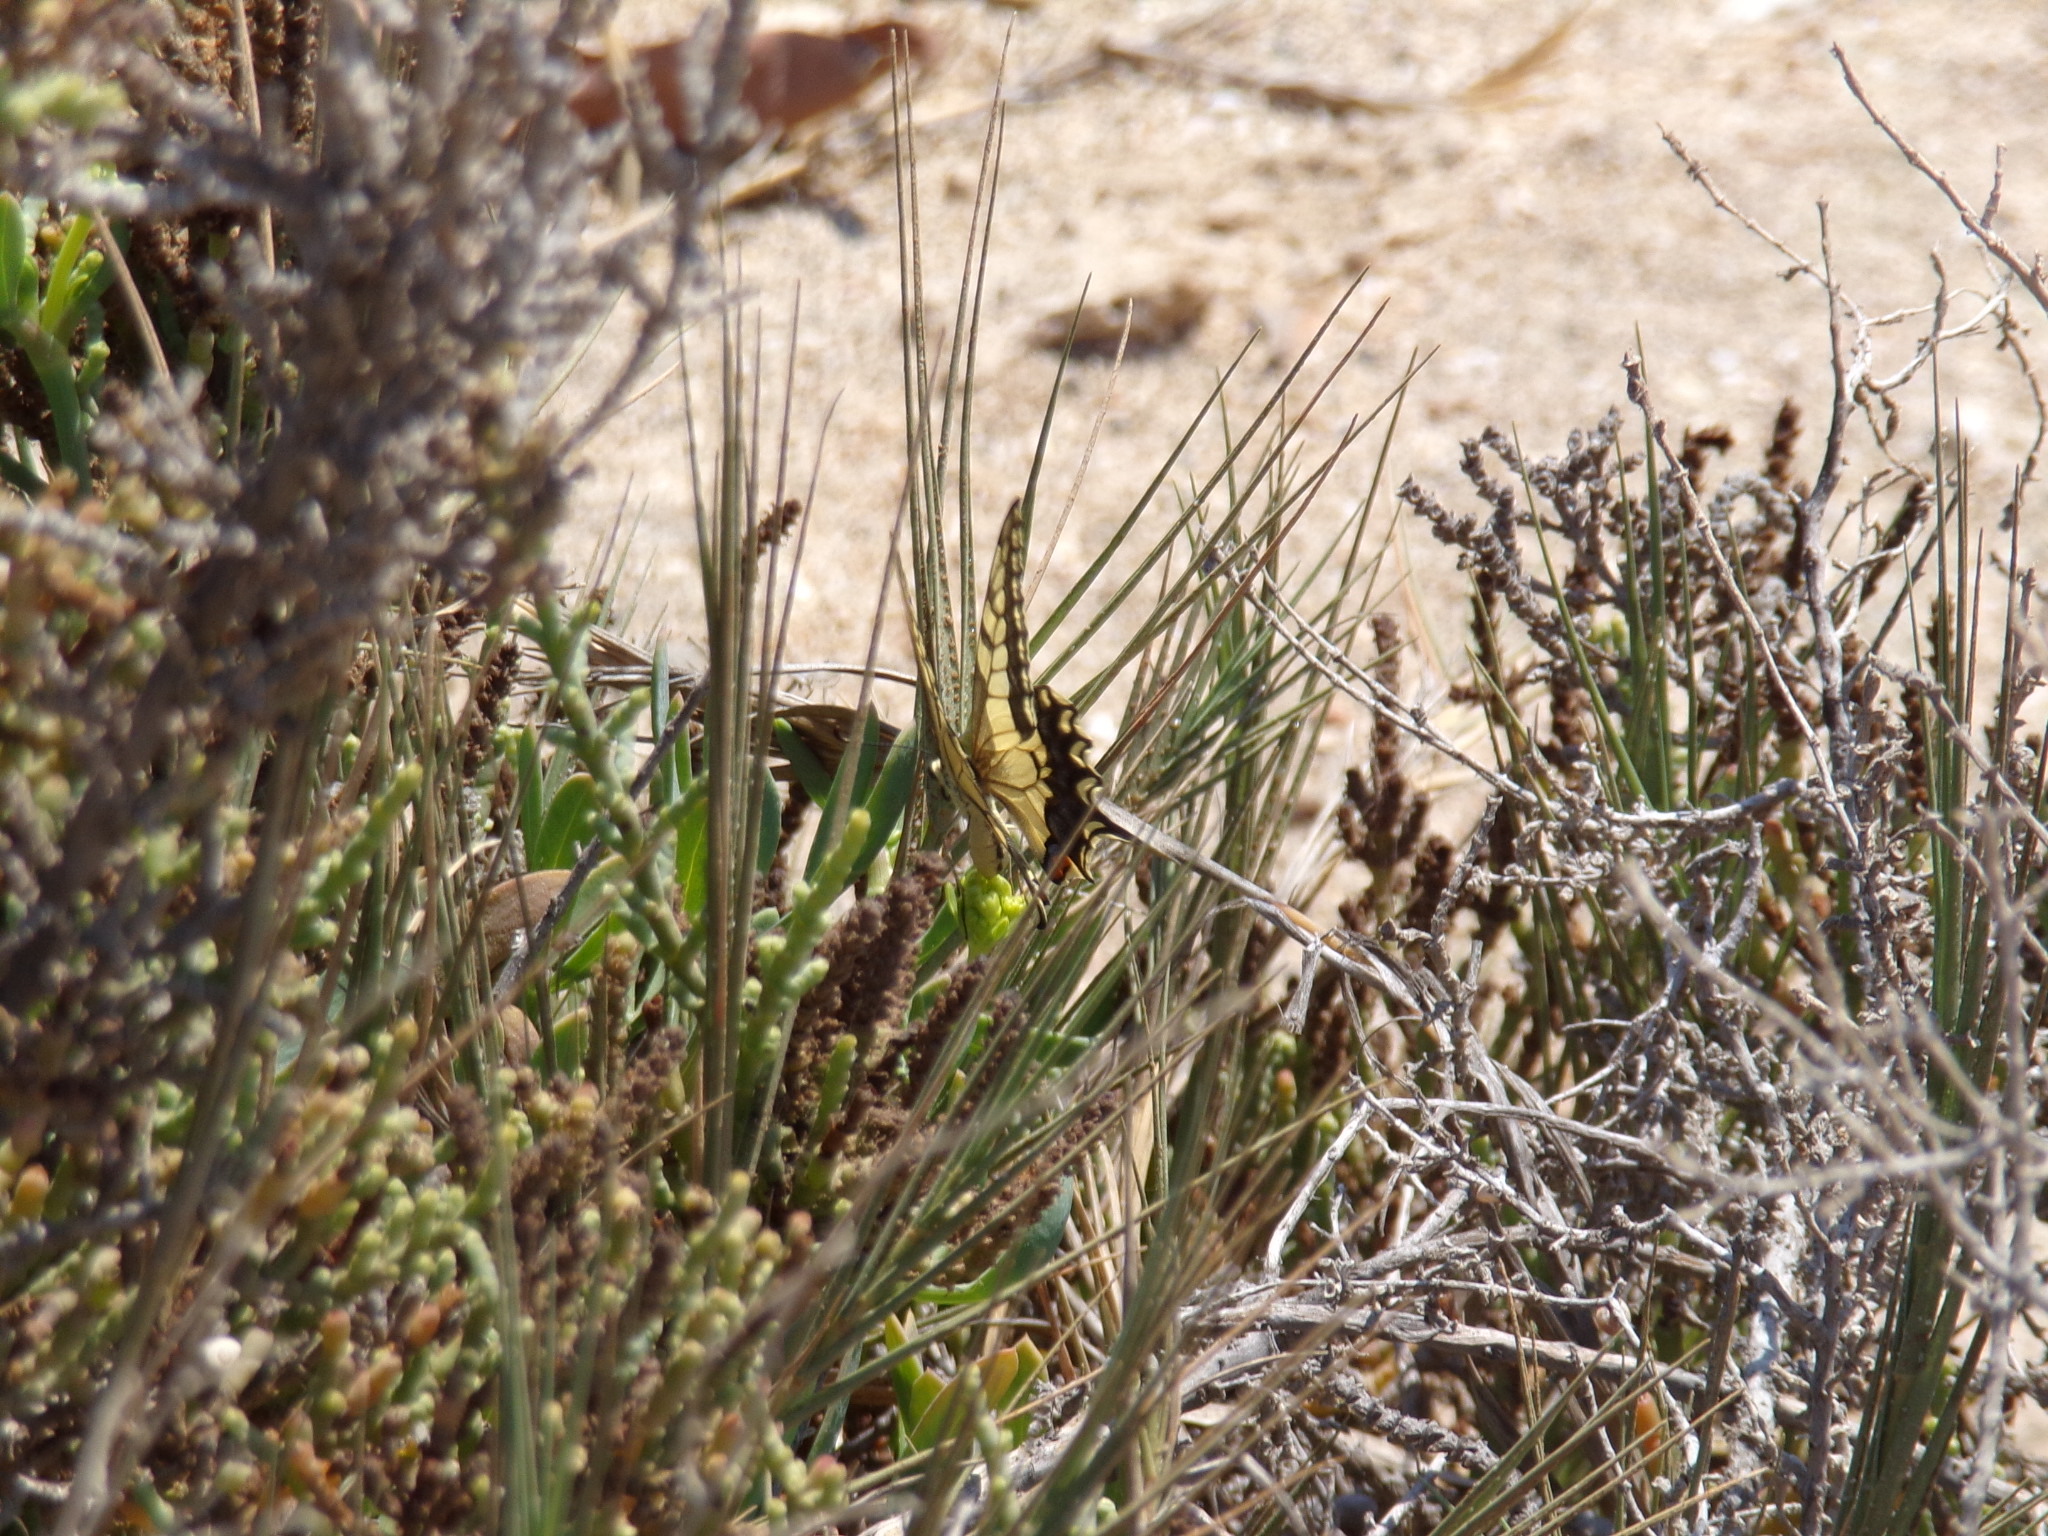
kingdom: Animalia
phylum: Arthropoda
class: Insecta
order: Lepidoptera
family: Papilionidae
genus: Papilio
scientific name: Papilio machaon
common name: Swallowtail
